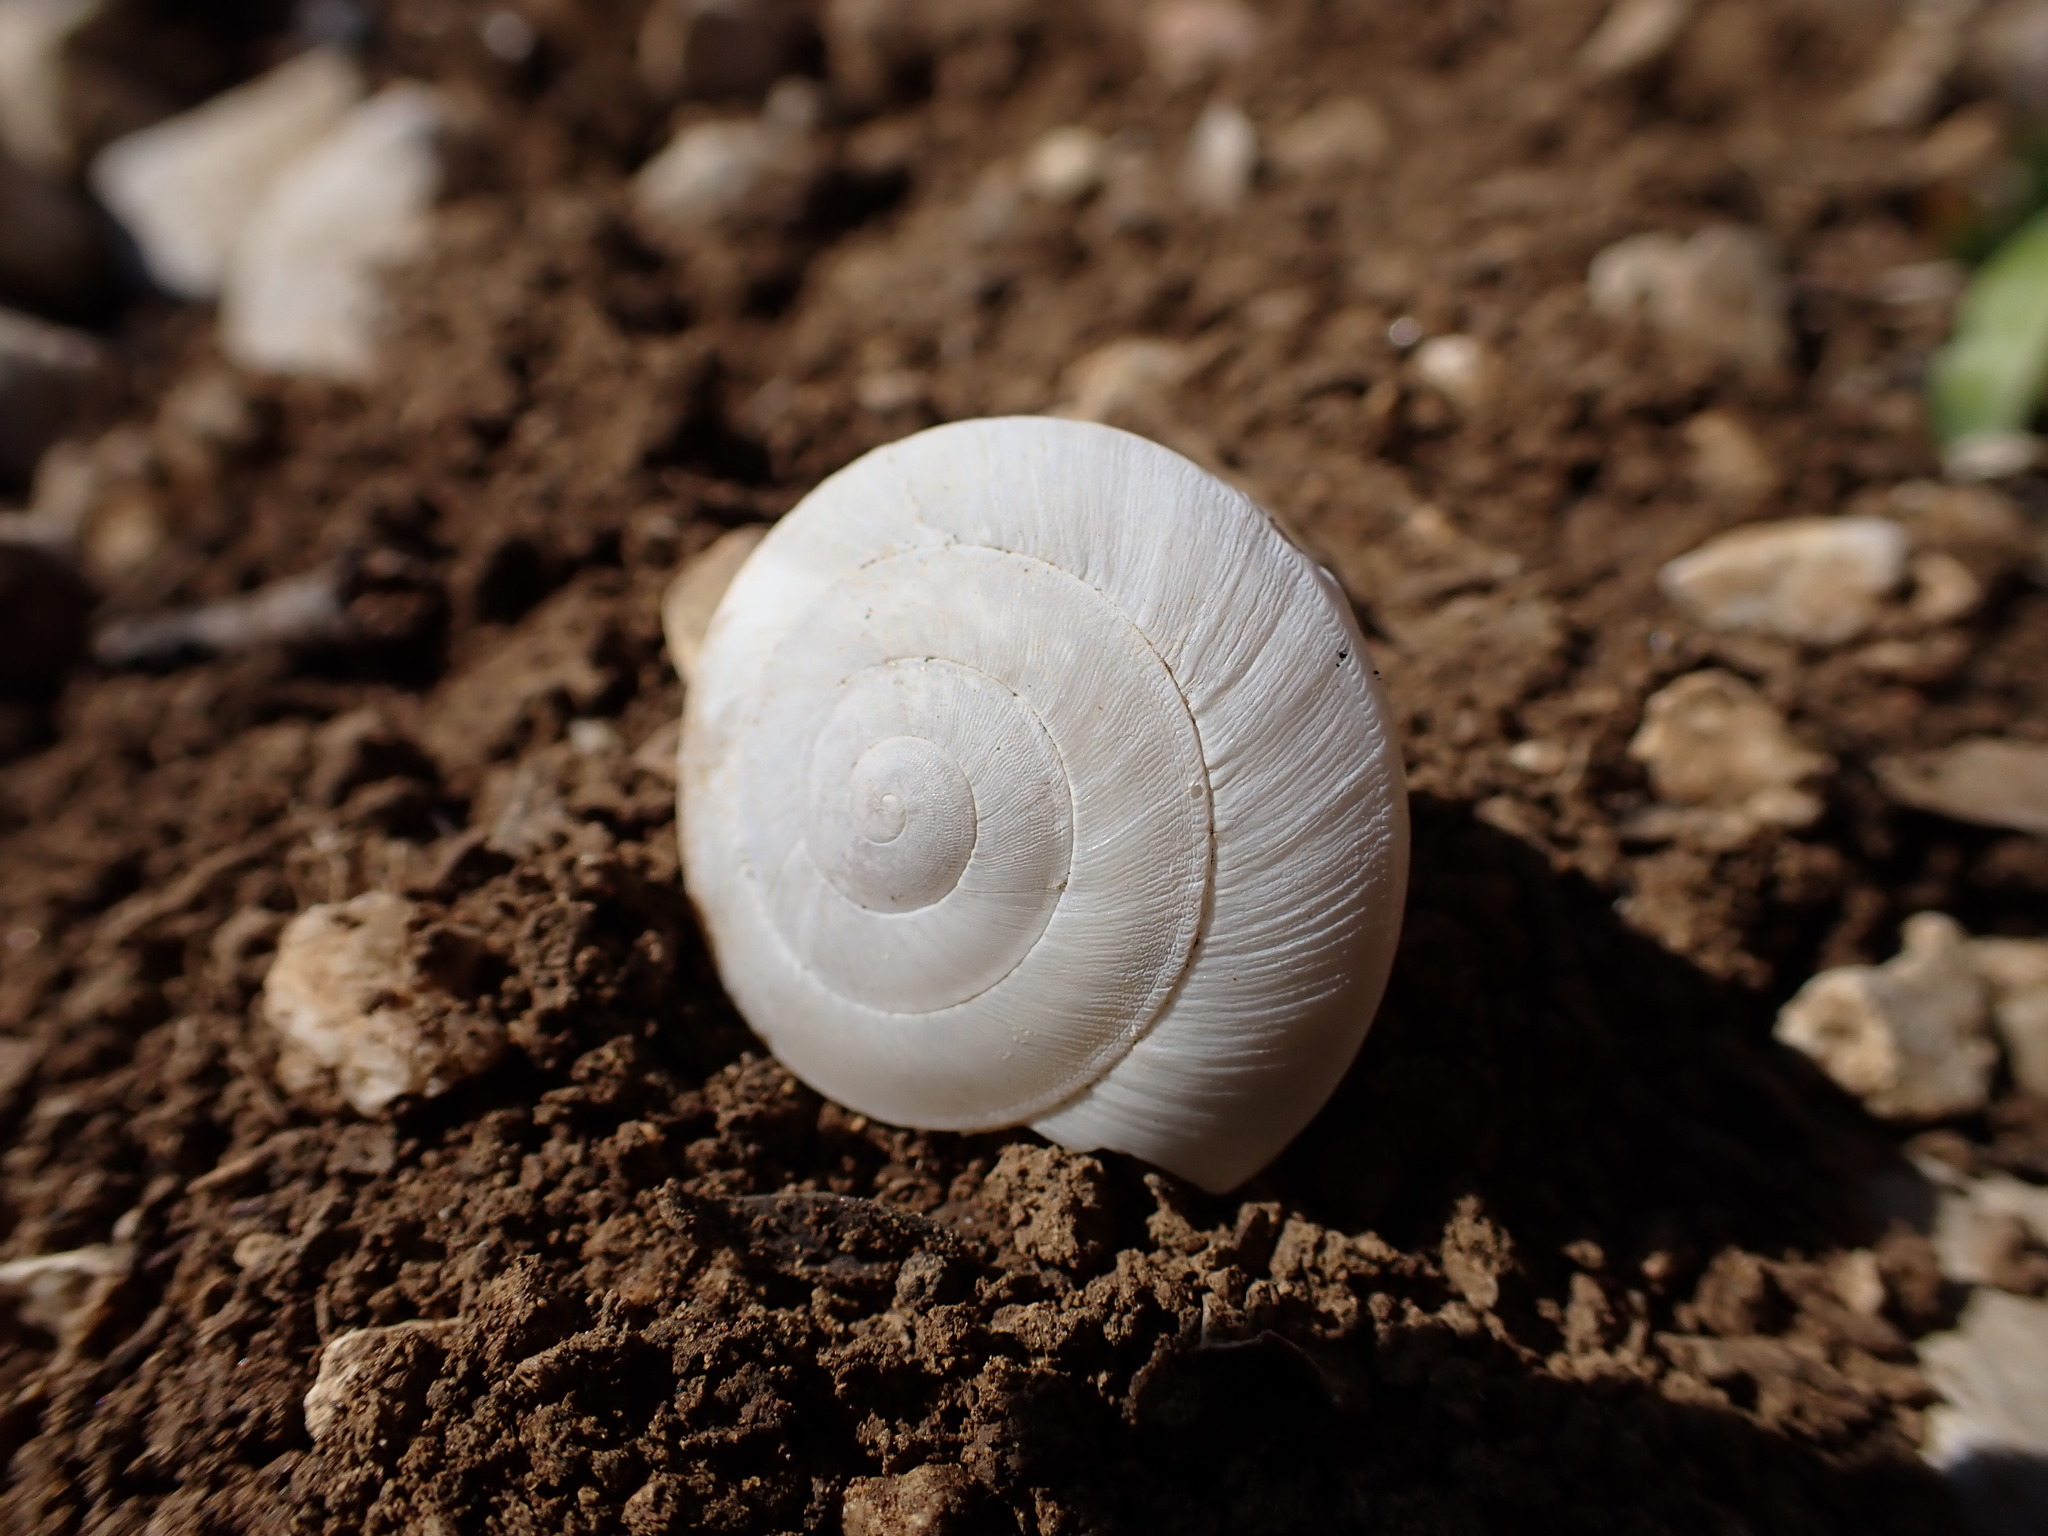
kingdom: Animalia
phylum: Mollusca
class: Gastropoda
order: Stylommatophora
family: Zonitidae
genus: Zonites
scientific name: Zonites algirus
